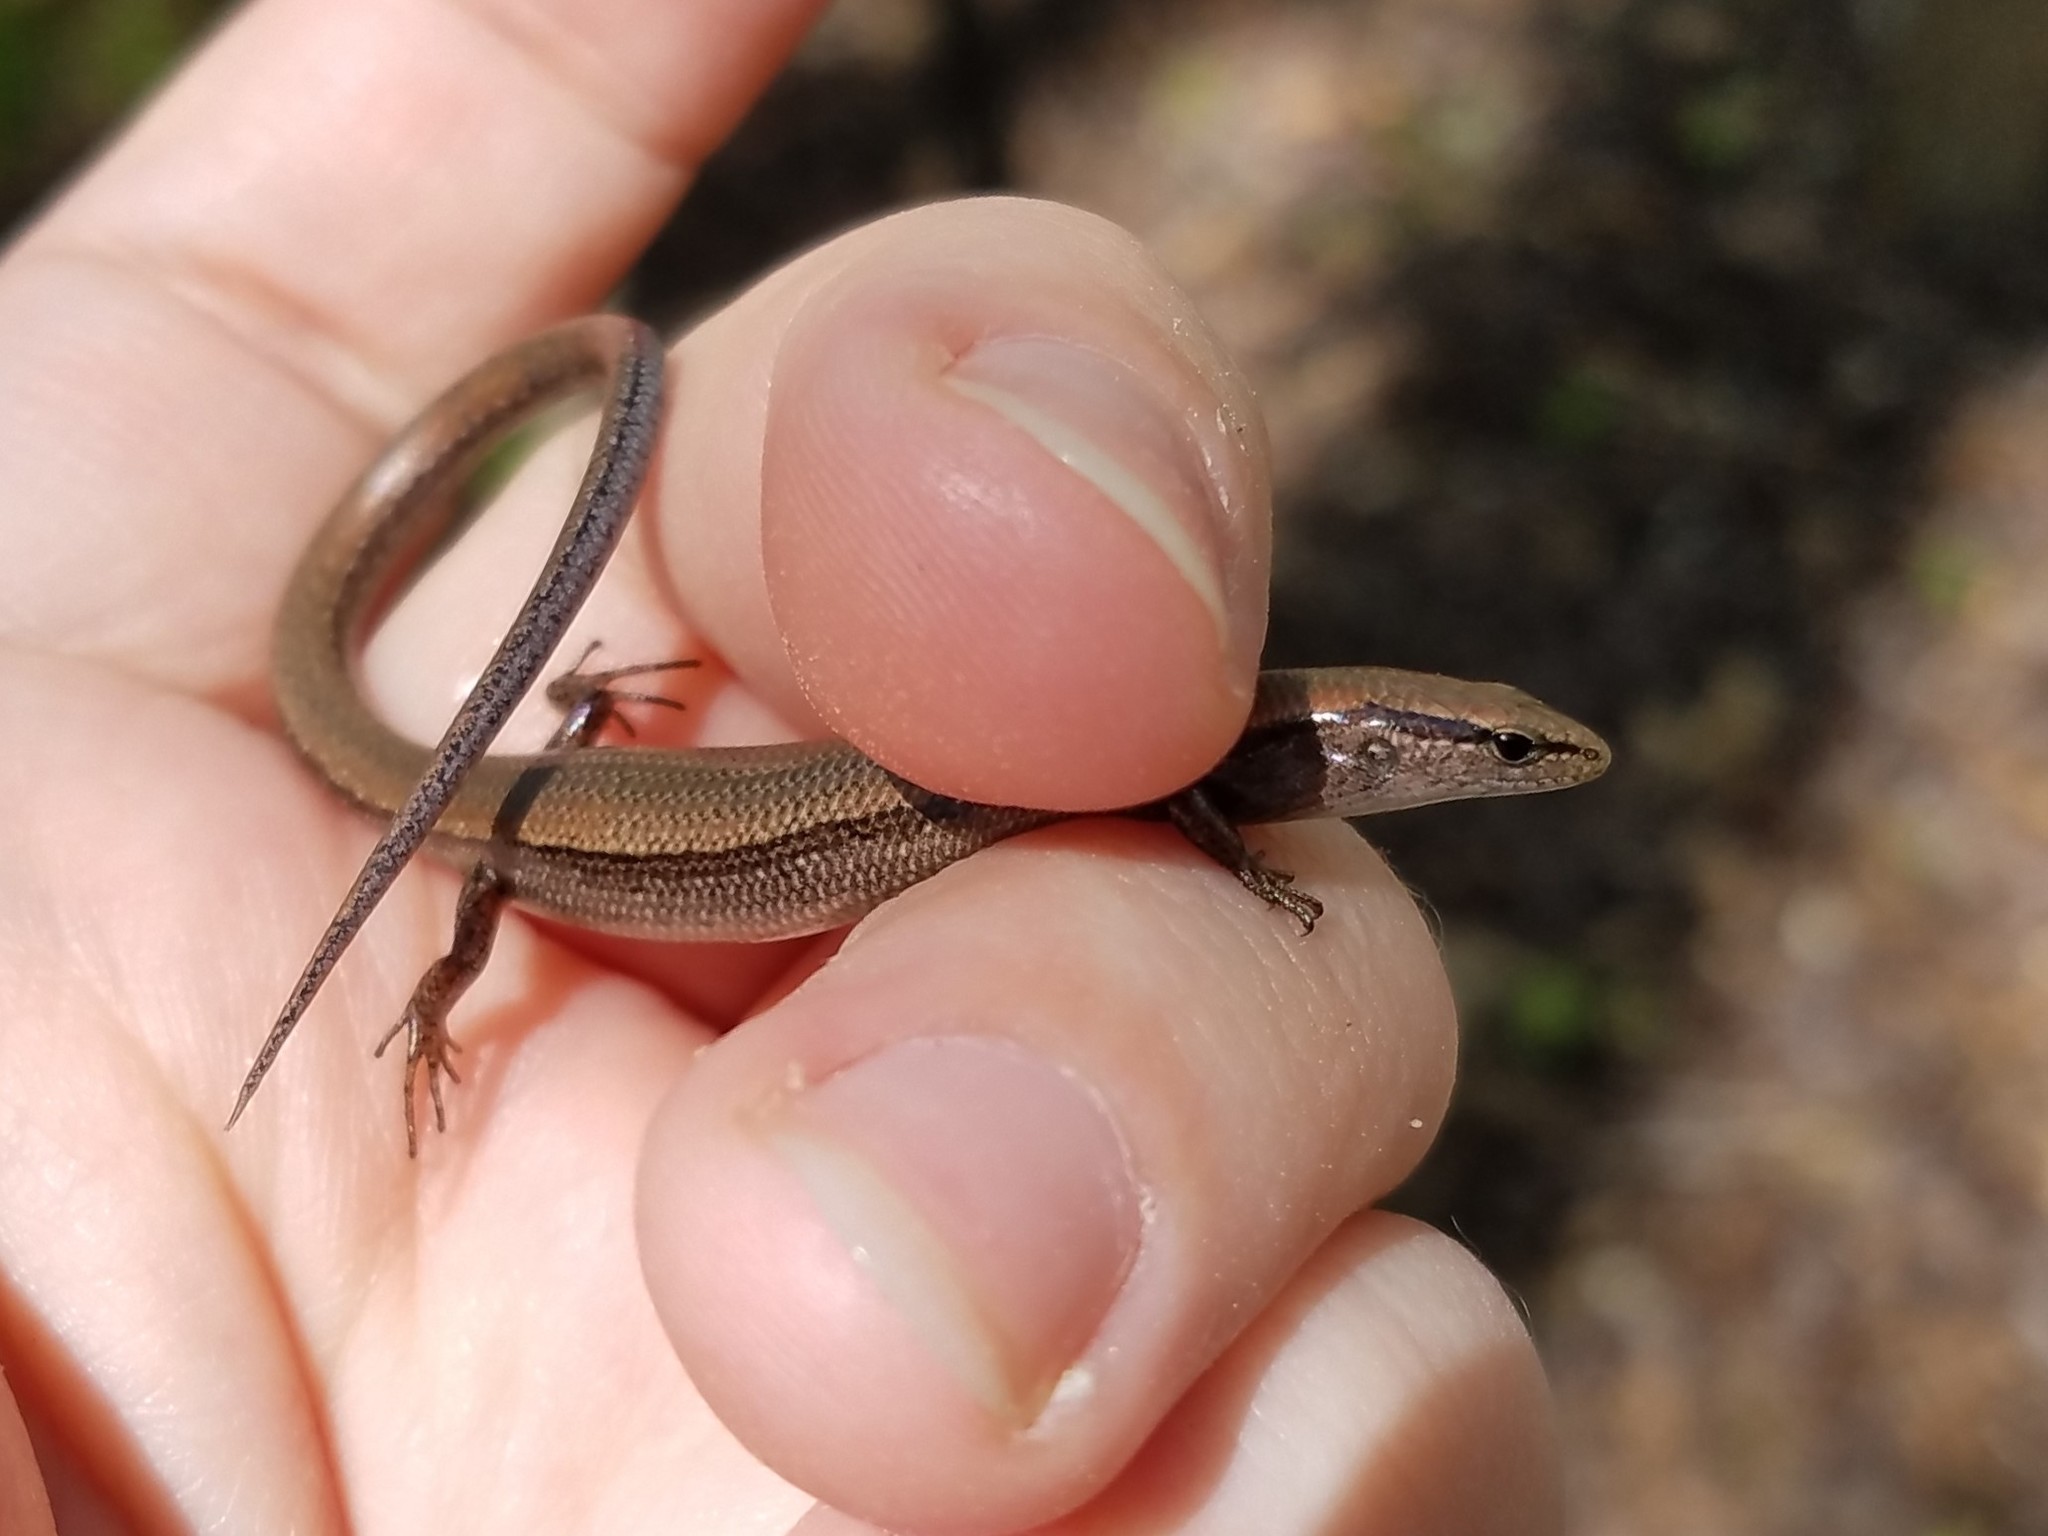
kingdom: Animalia
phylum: Chordata
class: Squamata
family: Scincidae
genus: Scincella
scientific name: Scincella lateralis
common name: Ground skink
